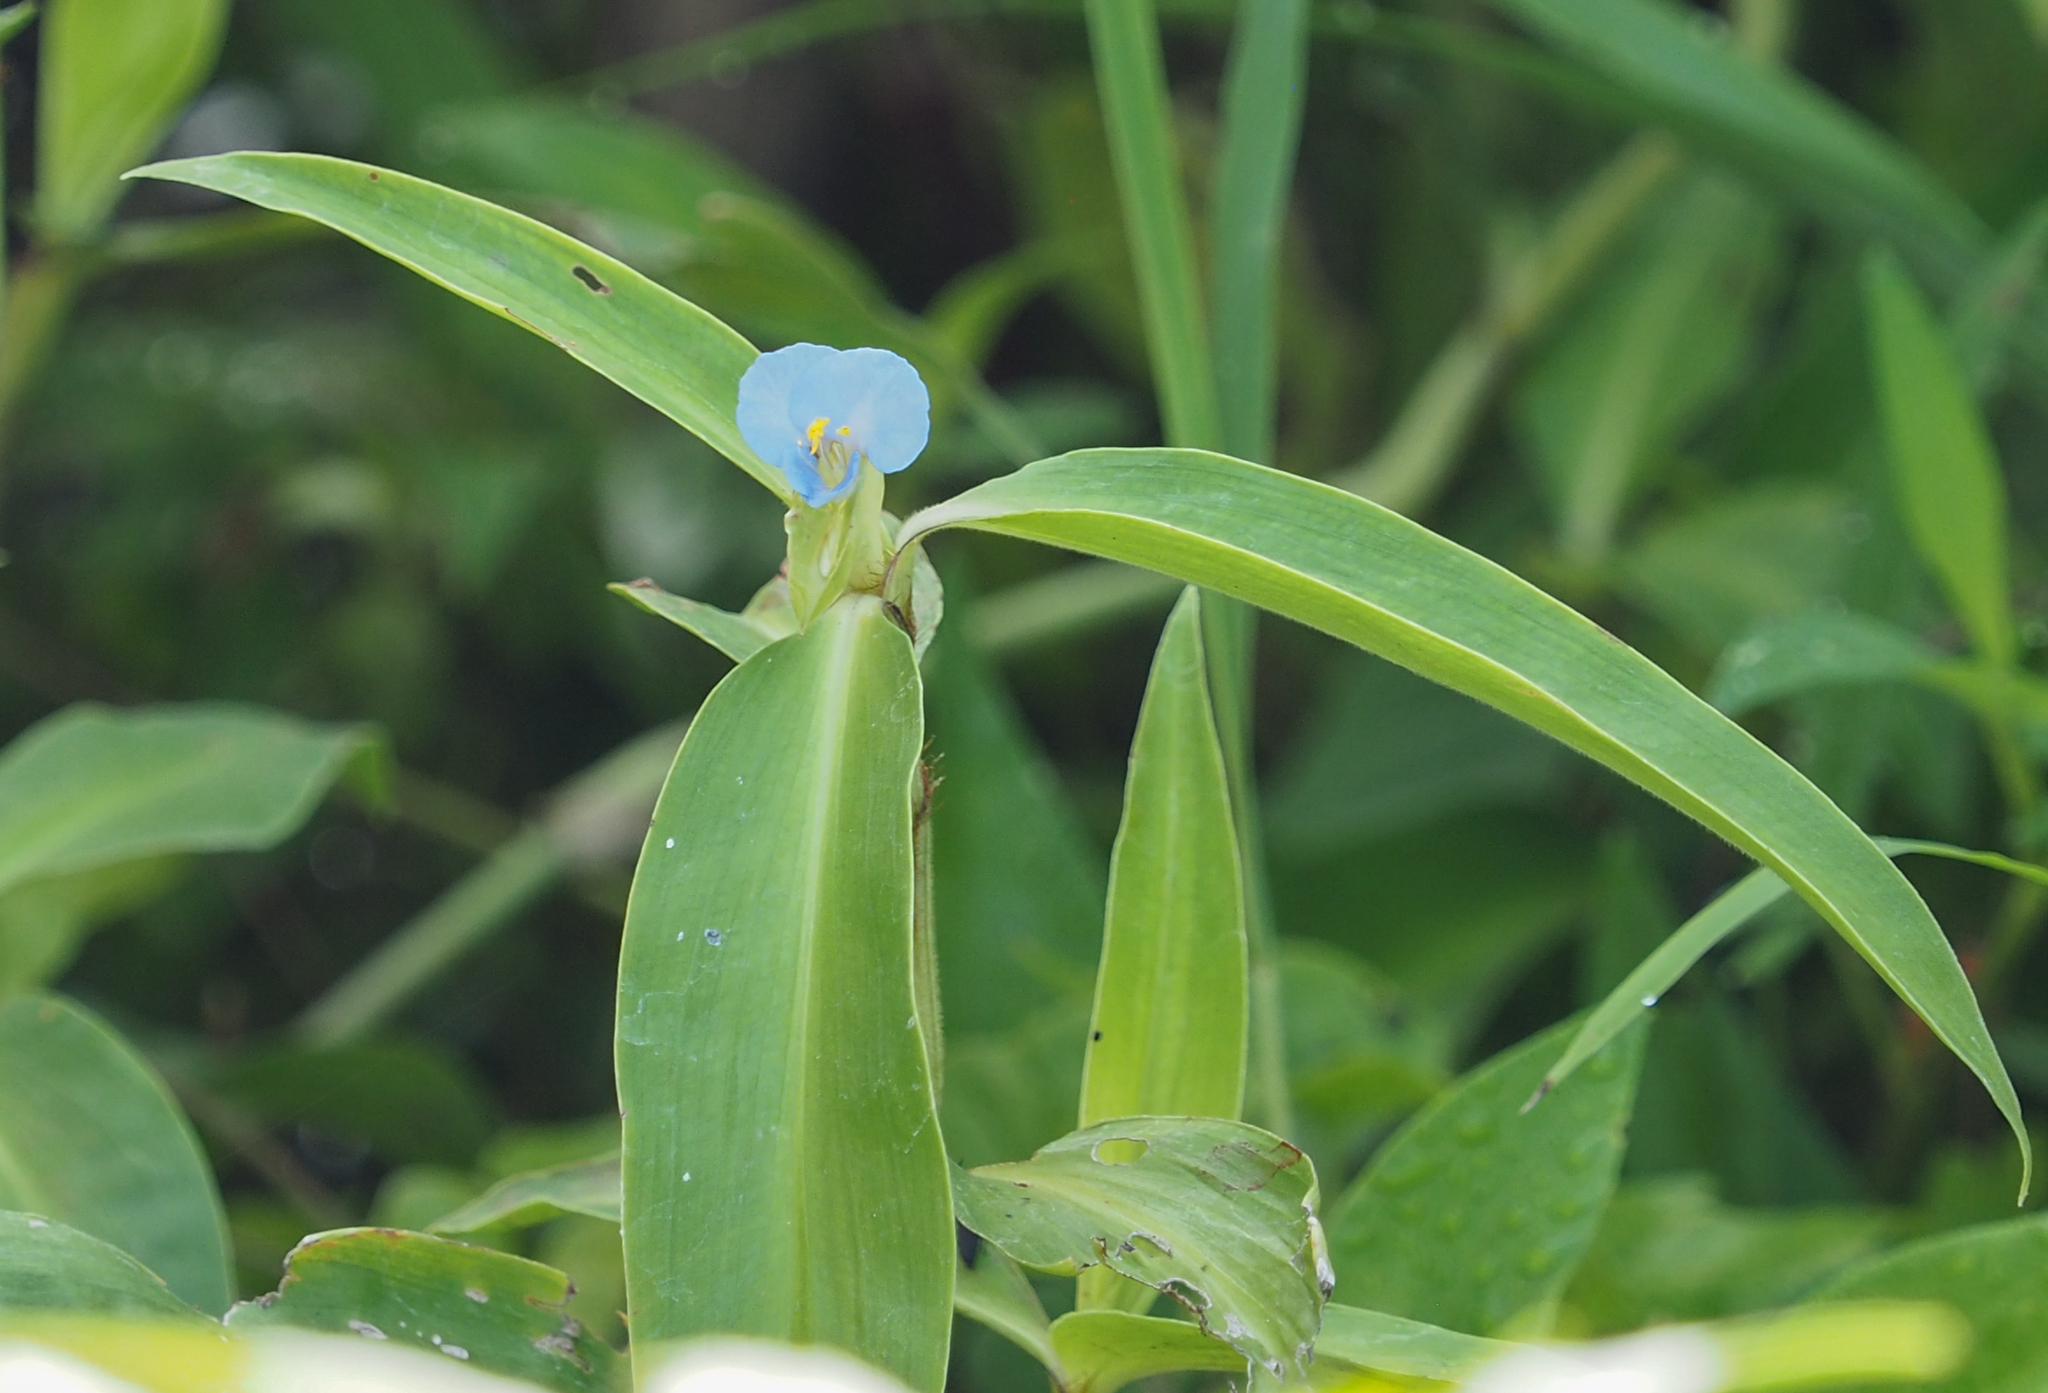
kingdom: Plantae
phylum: Tracheophyta
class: Liliopsida
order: Commelinales
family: Commelinaceae
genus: Commelina
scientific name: Commelina virginica
